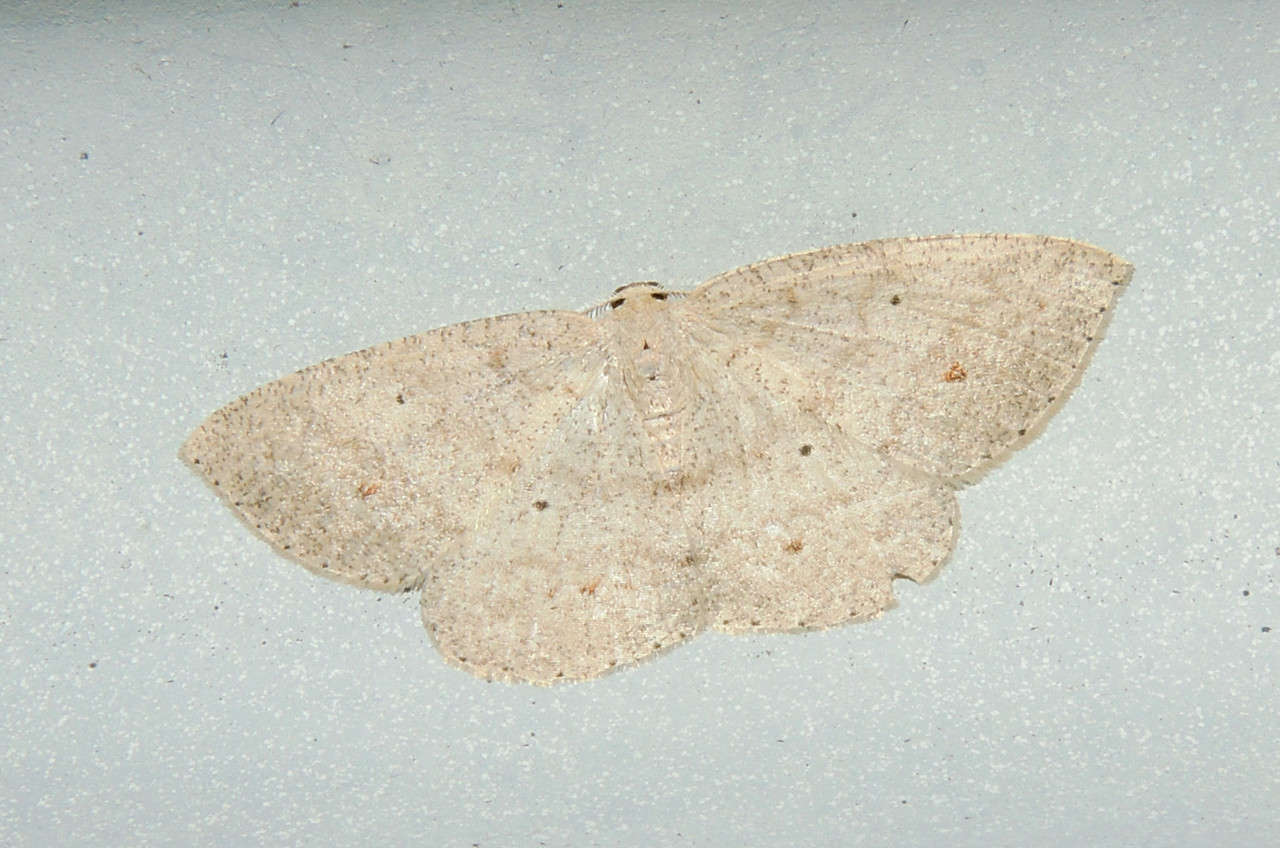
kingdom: Animalia
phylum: Arthropoda
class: Insecta
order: Lepidoptera
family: Geometridae
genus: Casbia
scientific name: Casbia farinalis
